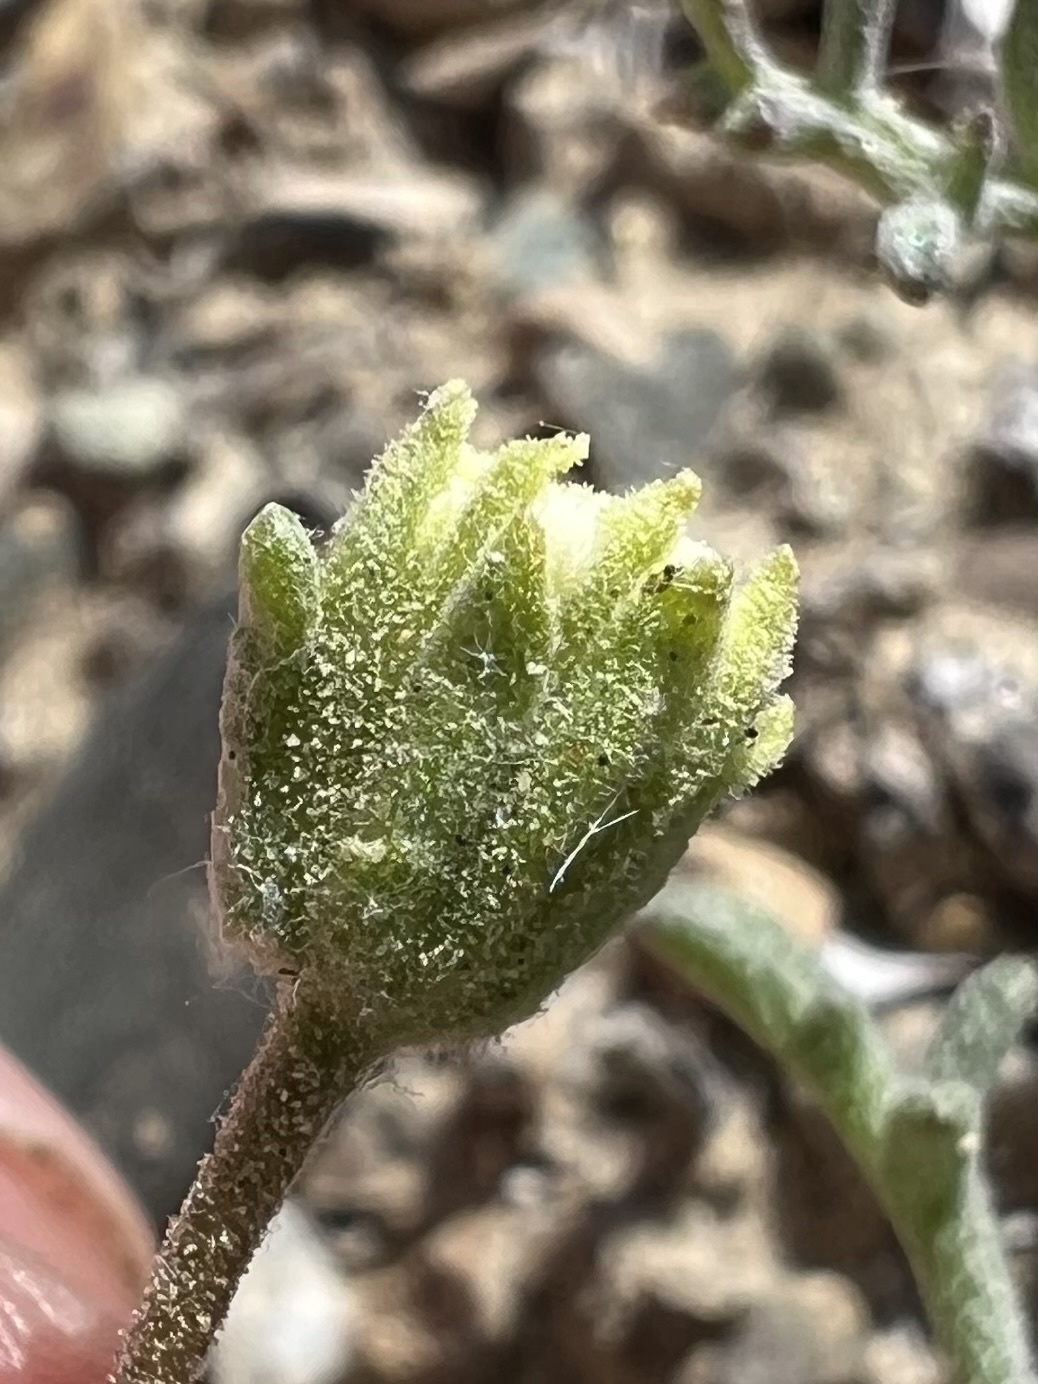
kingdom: Plantae
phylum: Tracheophyta
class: Magnoliopsida
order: Asterales
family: Asteraceae
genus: Chaenactis
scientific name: Chaenactis stevioides
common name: Desert pincushion
